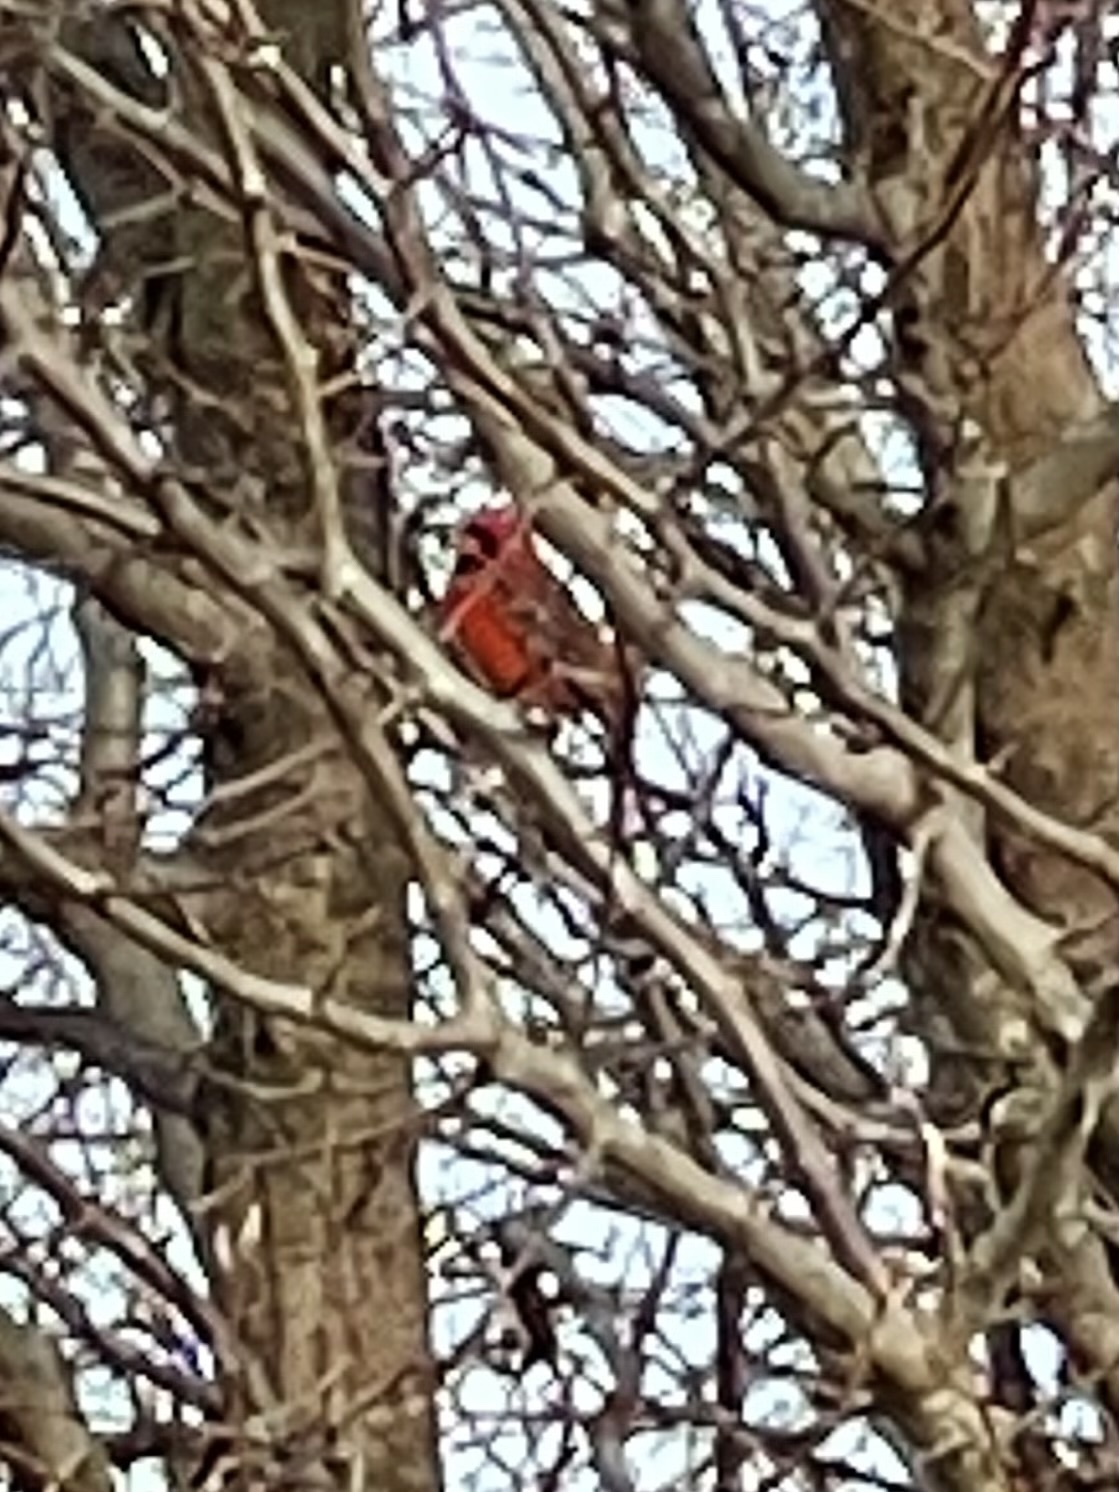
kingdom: Animalia
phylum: Chordata
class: Aves
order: Passeriformes
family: Cardinalidae
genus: Cardinalis
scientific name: Cardinalis cardinalis
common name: Northern cardinal
